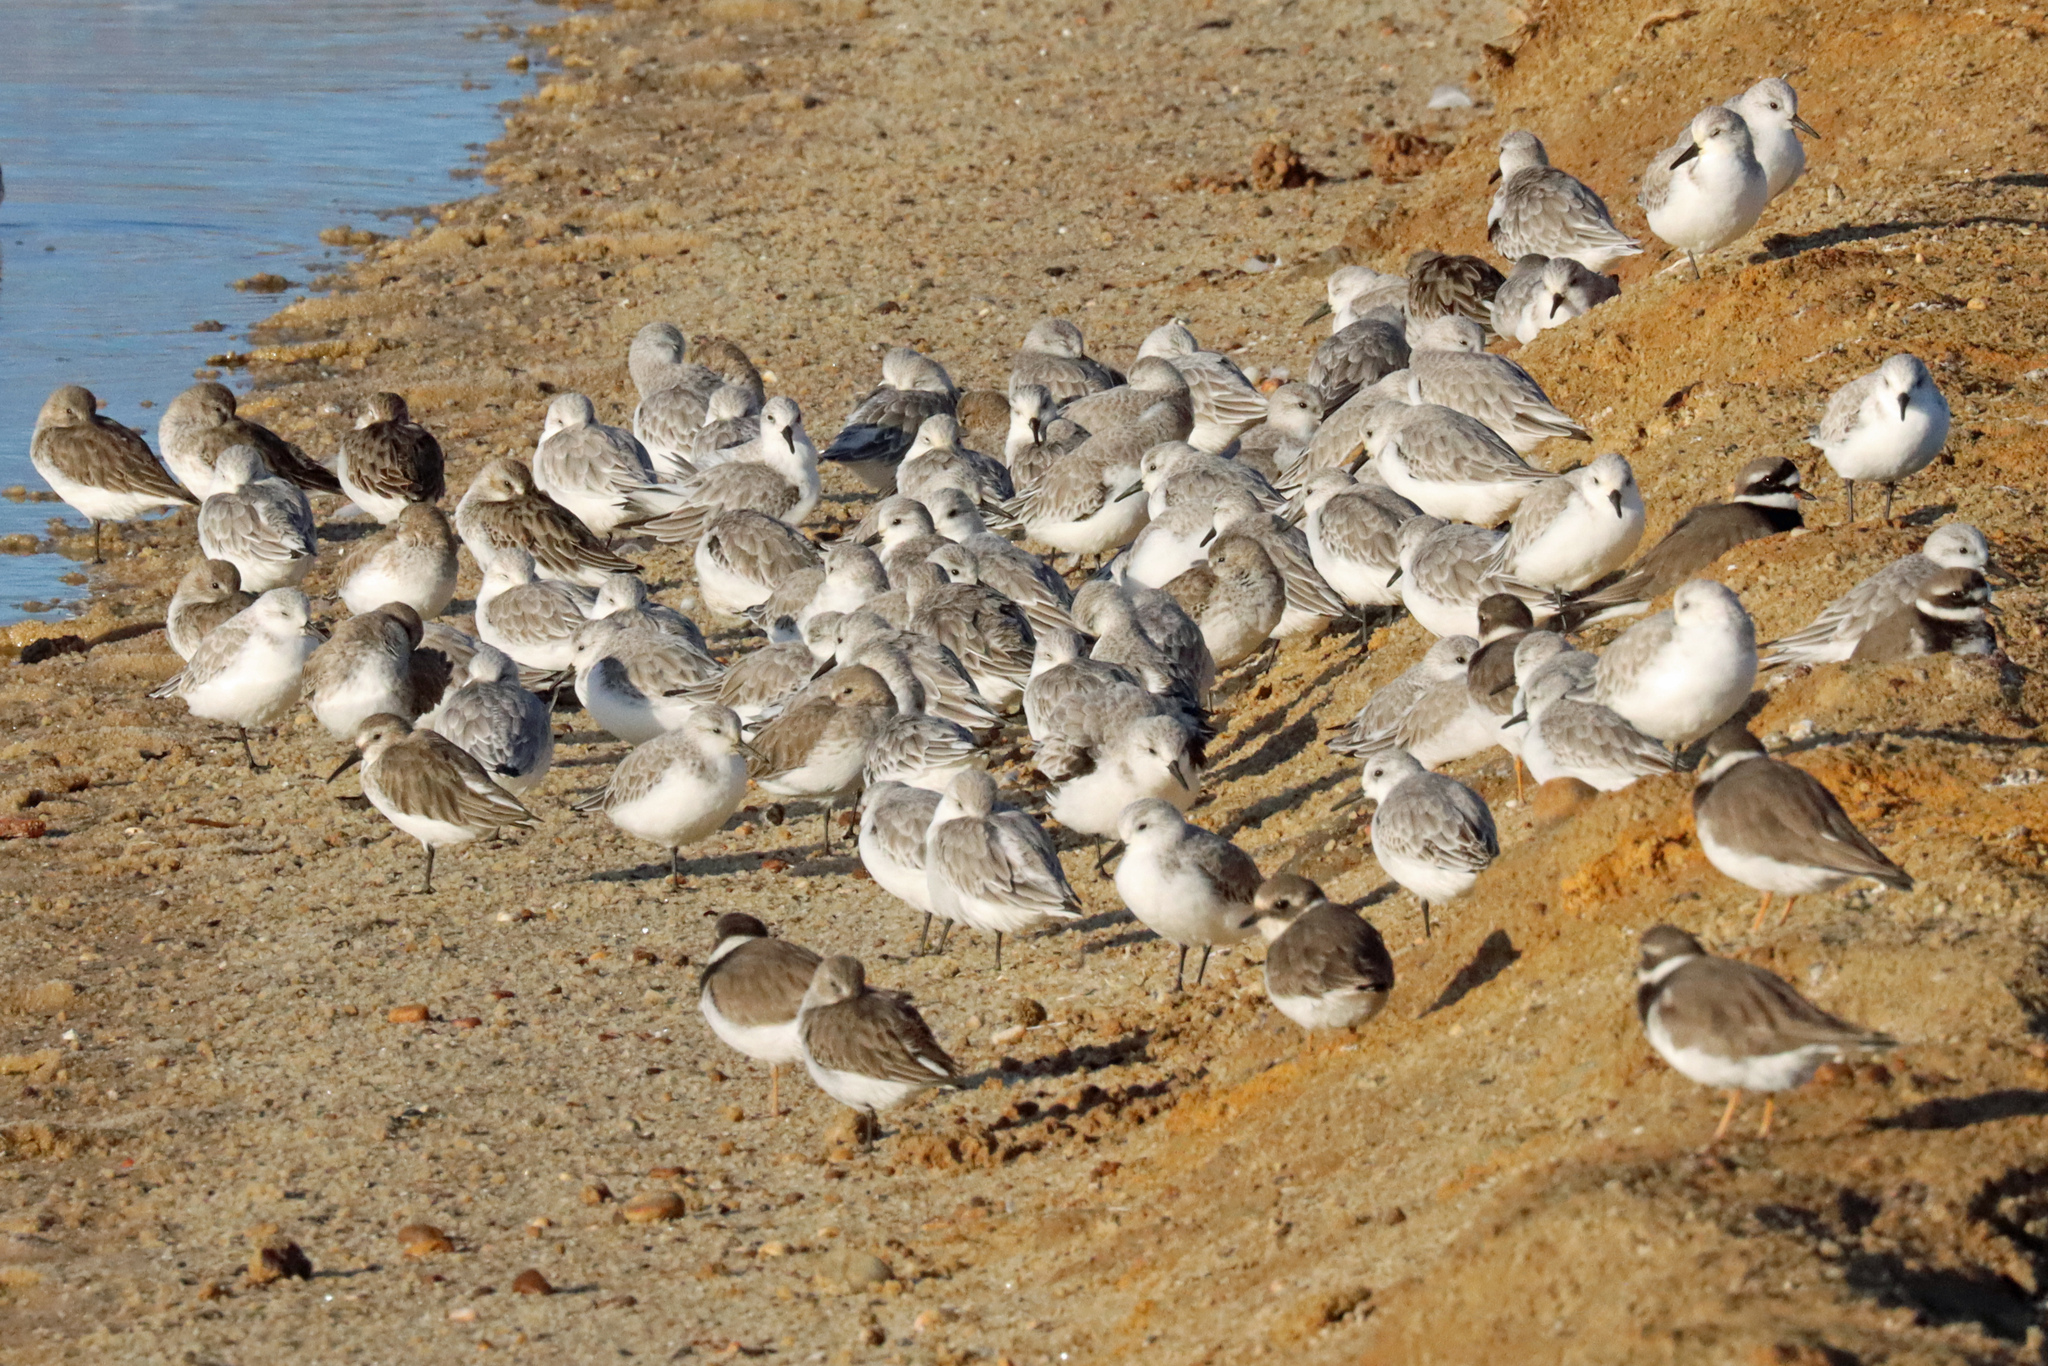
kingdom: Animalia
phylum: Chordata
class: Aves
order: Charadriiformes
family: Charadriidae
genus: Charadrius
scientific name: Charadrius hiaticula
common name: Common ringed plover
